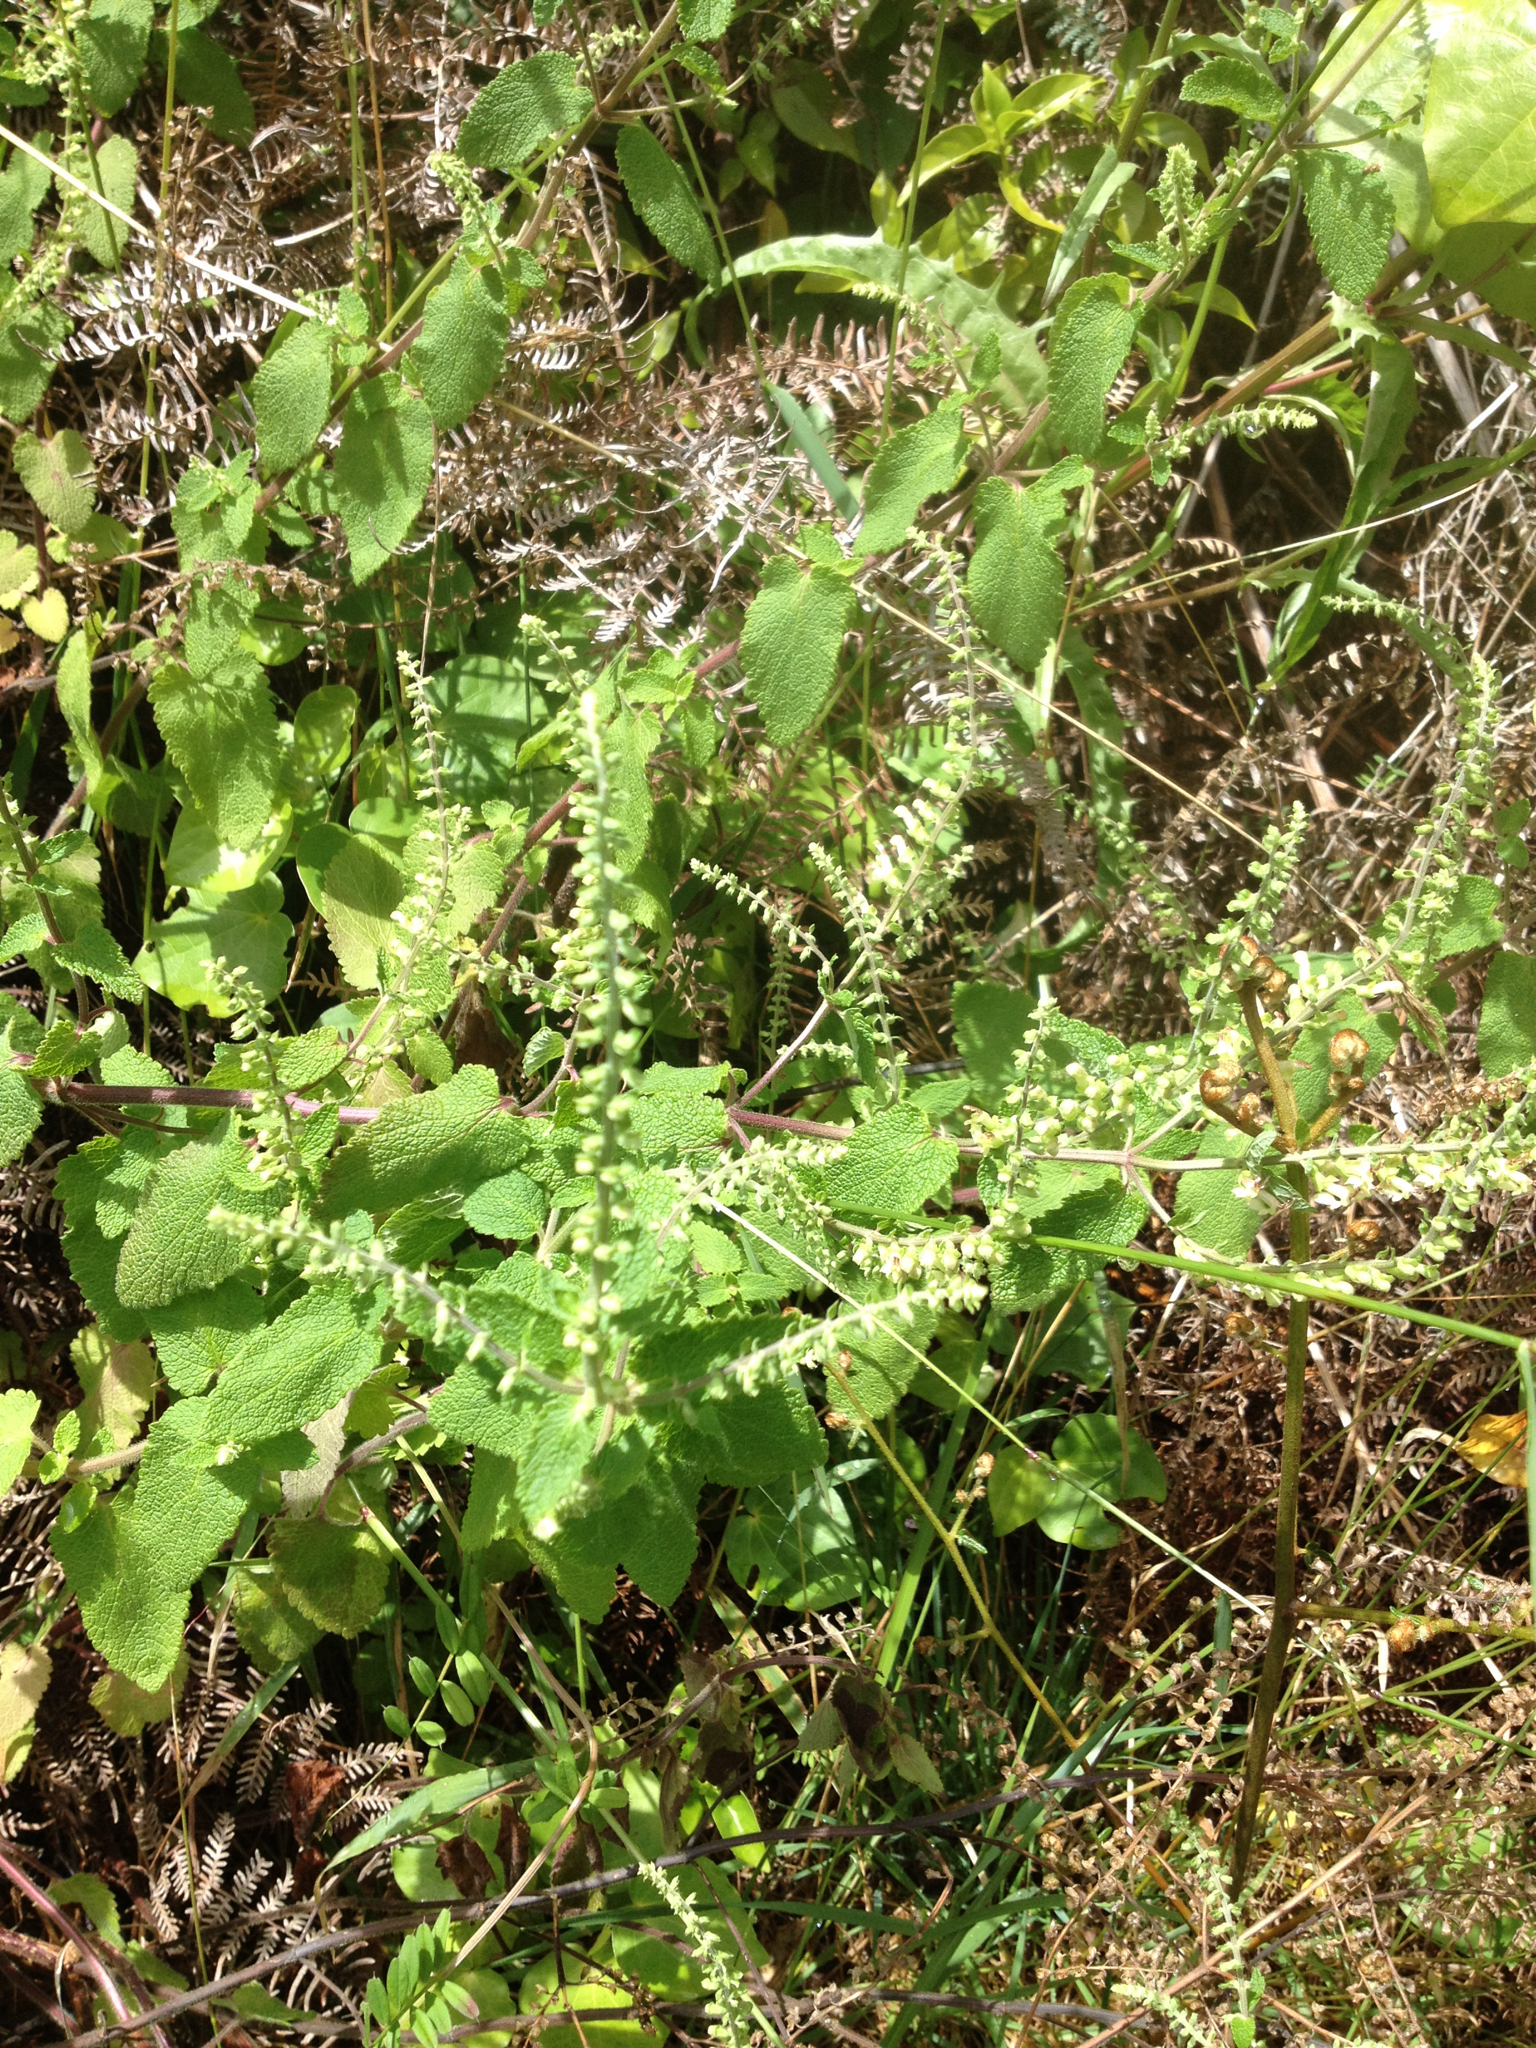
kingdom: Plantae
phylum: Tracheophyta
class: Magnoliopsida
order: Lamiales
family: Lamiaceae
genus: Teucrium
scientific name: Teucrium scorodonia
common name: Woodland germander
